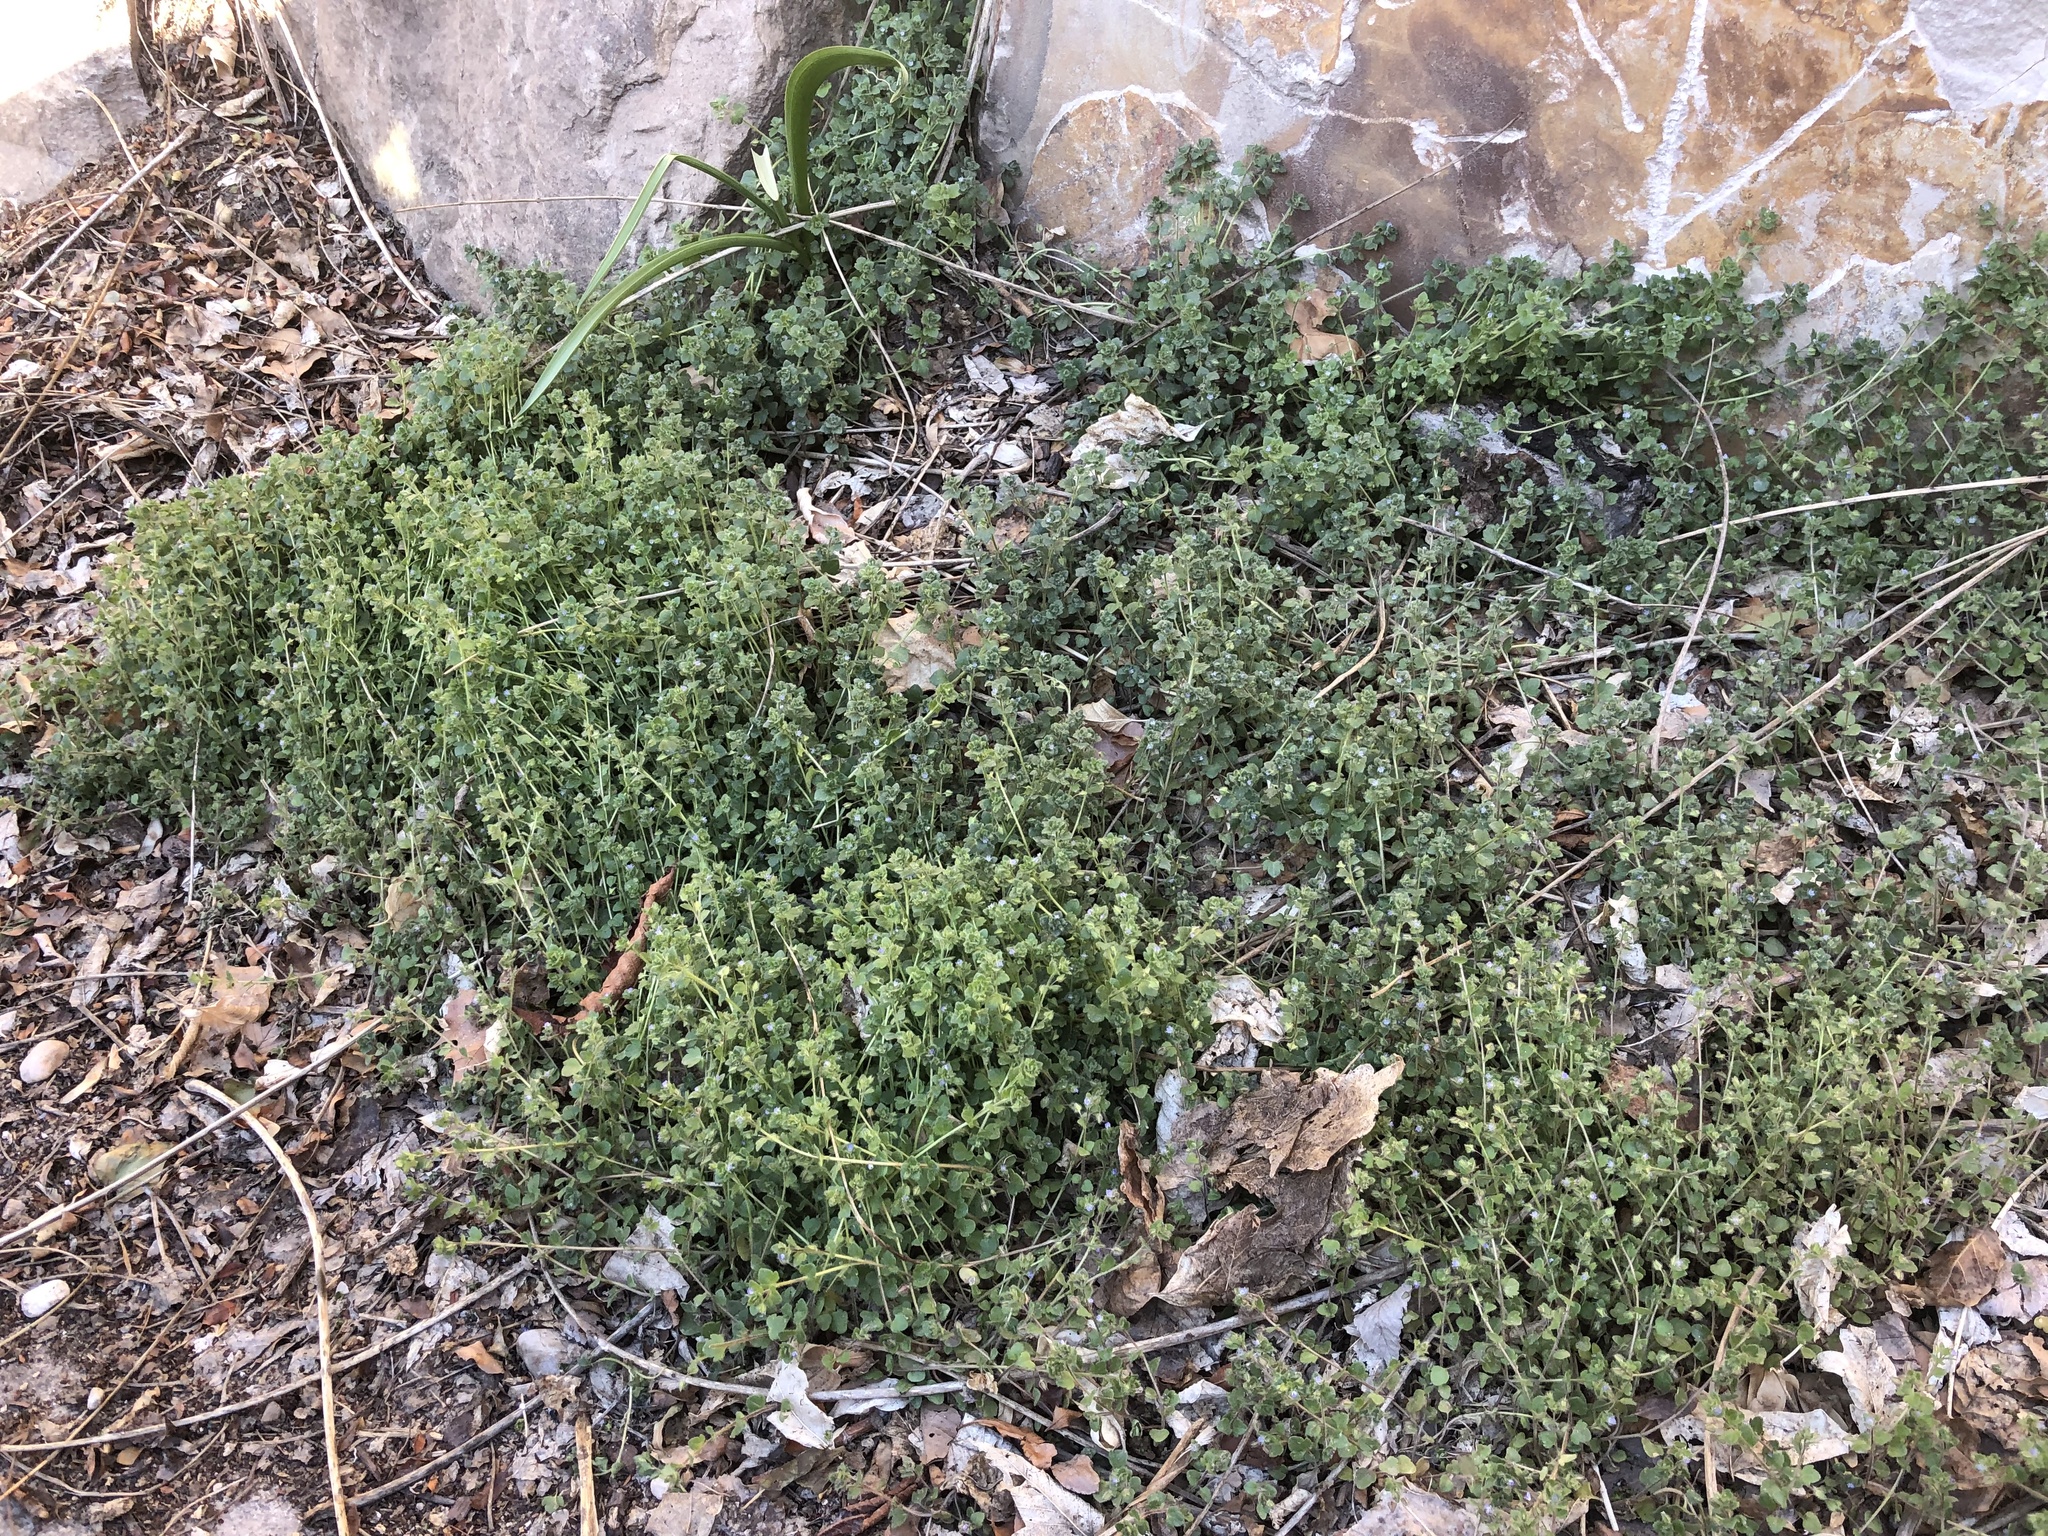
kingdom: Plantae
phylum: Tracheophyta
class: Magnoliopsida
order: Lamiales
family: Plantaginaceae
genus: Veronica
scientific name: Veronica hederifolia
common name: Ivy-leaved speedwell
